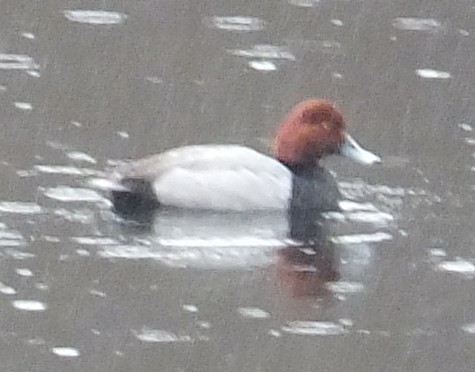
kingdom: Animalia
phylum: Chordata
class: Aves
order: Anseriformes
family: Anatidae
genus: Aythya
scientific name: Aythya americana
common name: Redhead
